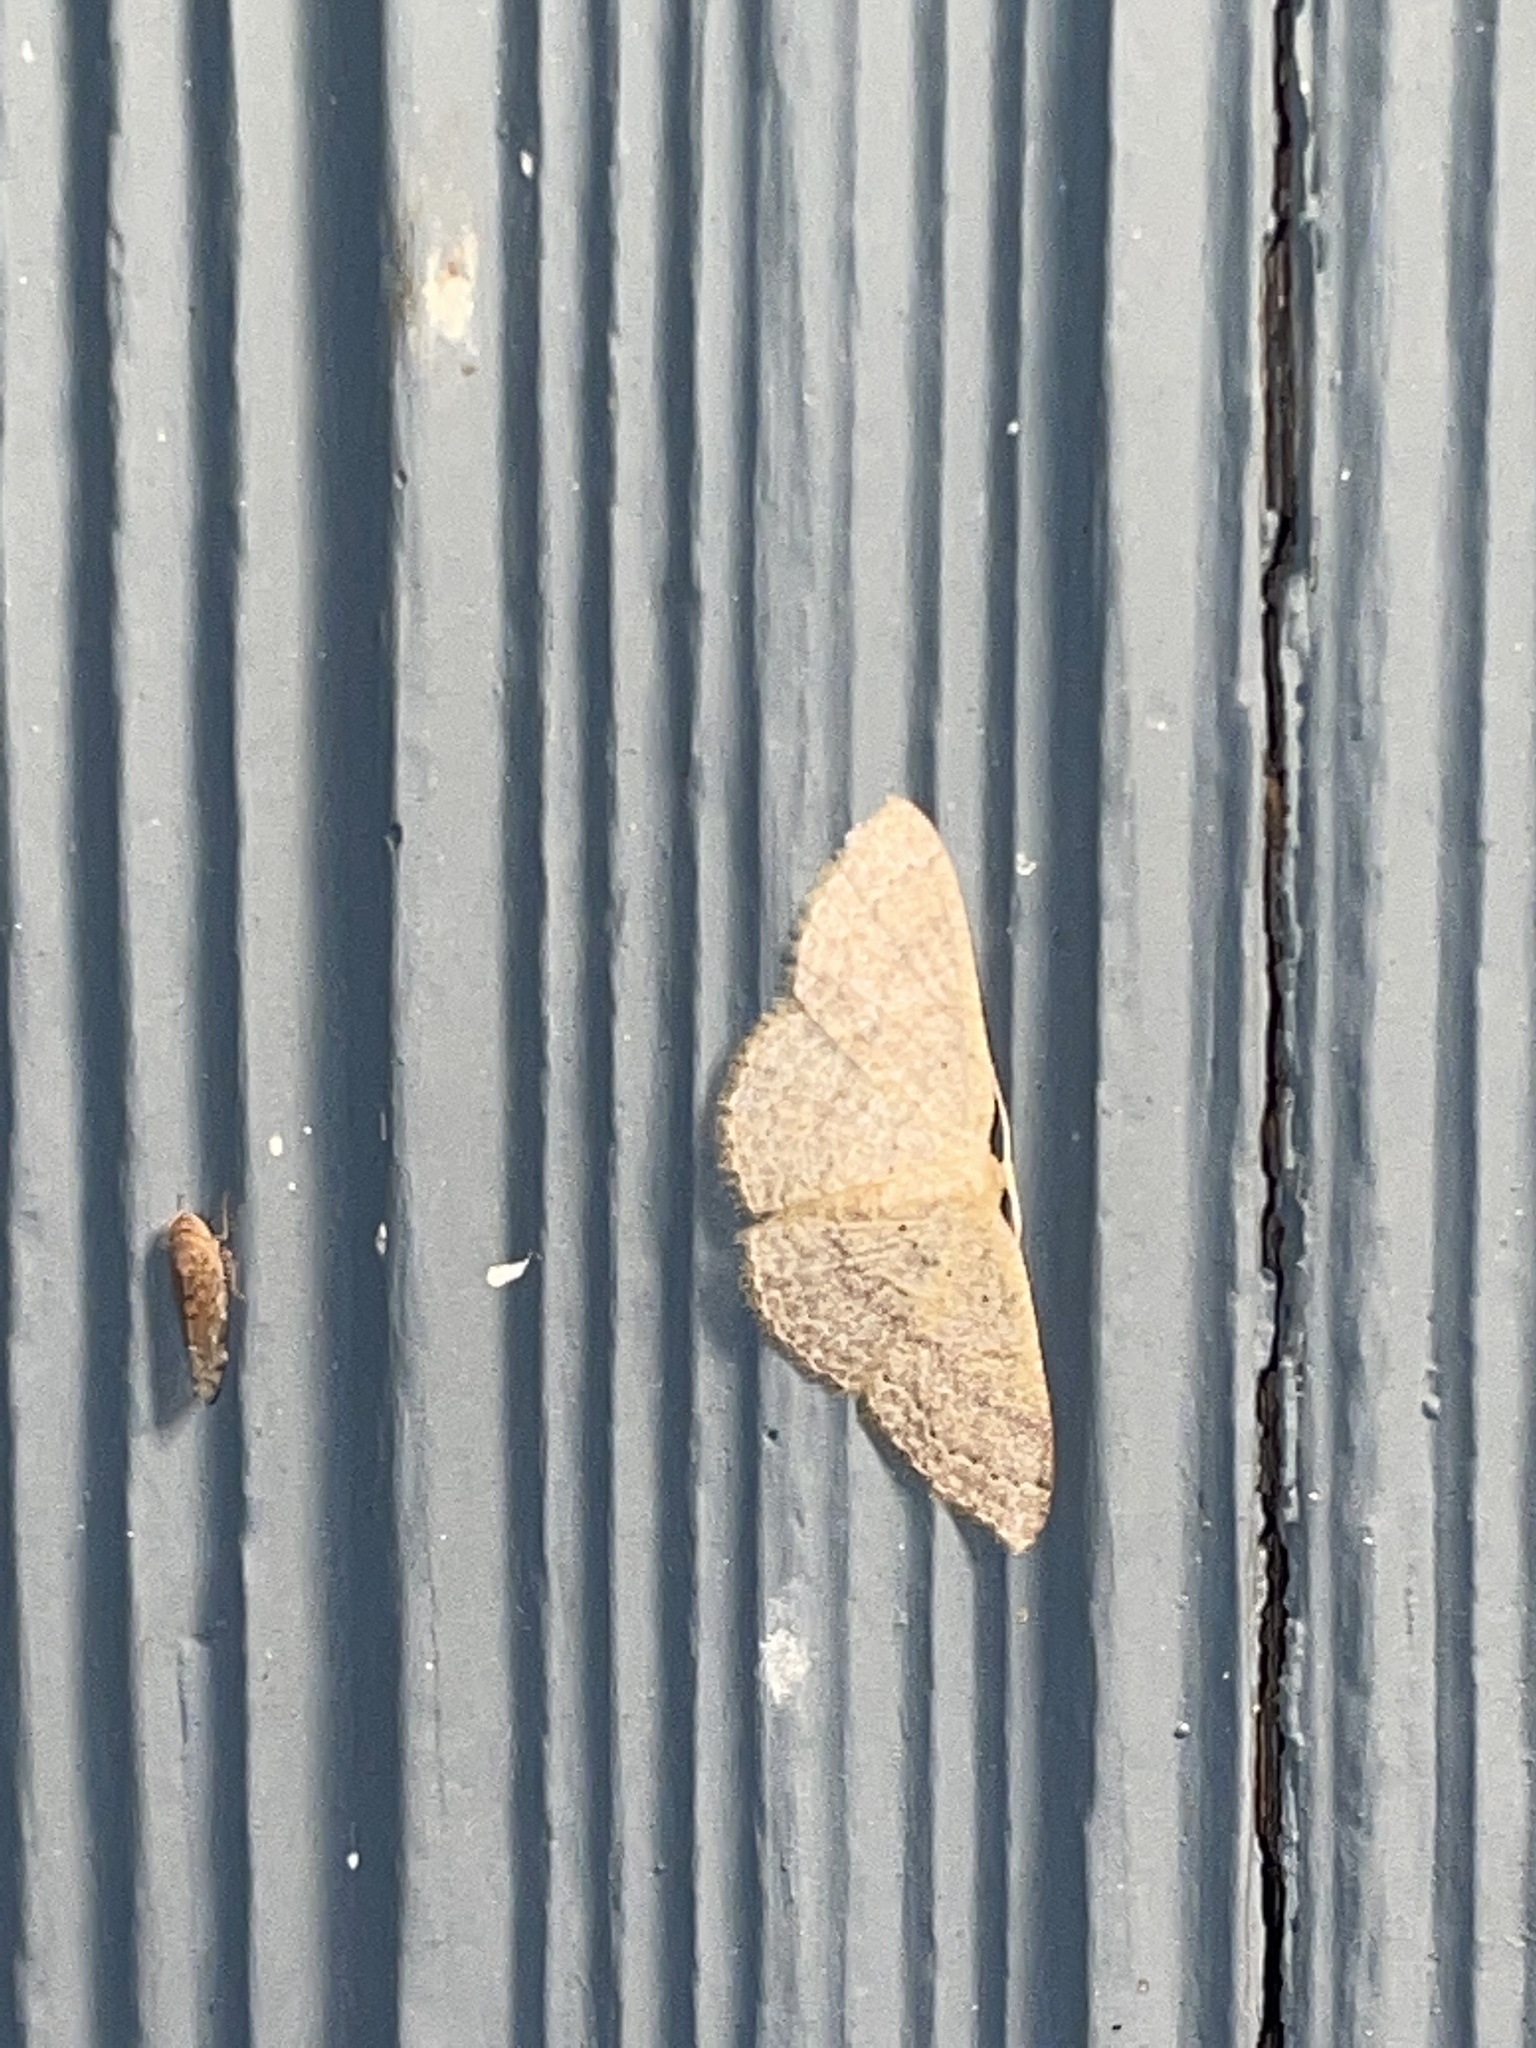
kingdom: Animalia
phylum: Arthropoda
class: Insecta
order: Lepidoptera
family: Geometridae
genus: Pleuroprucha
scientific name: Pleuroprucha insulsaria
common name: Common tan wave
